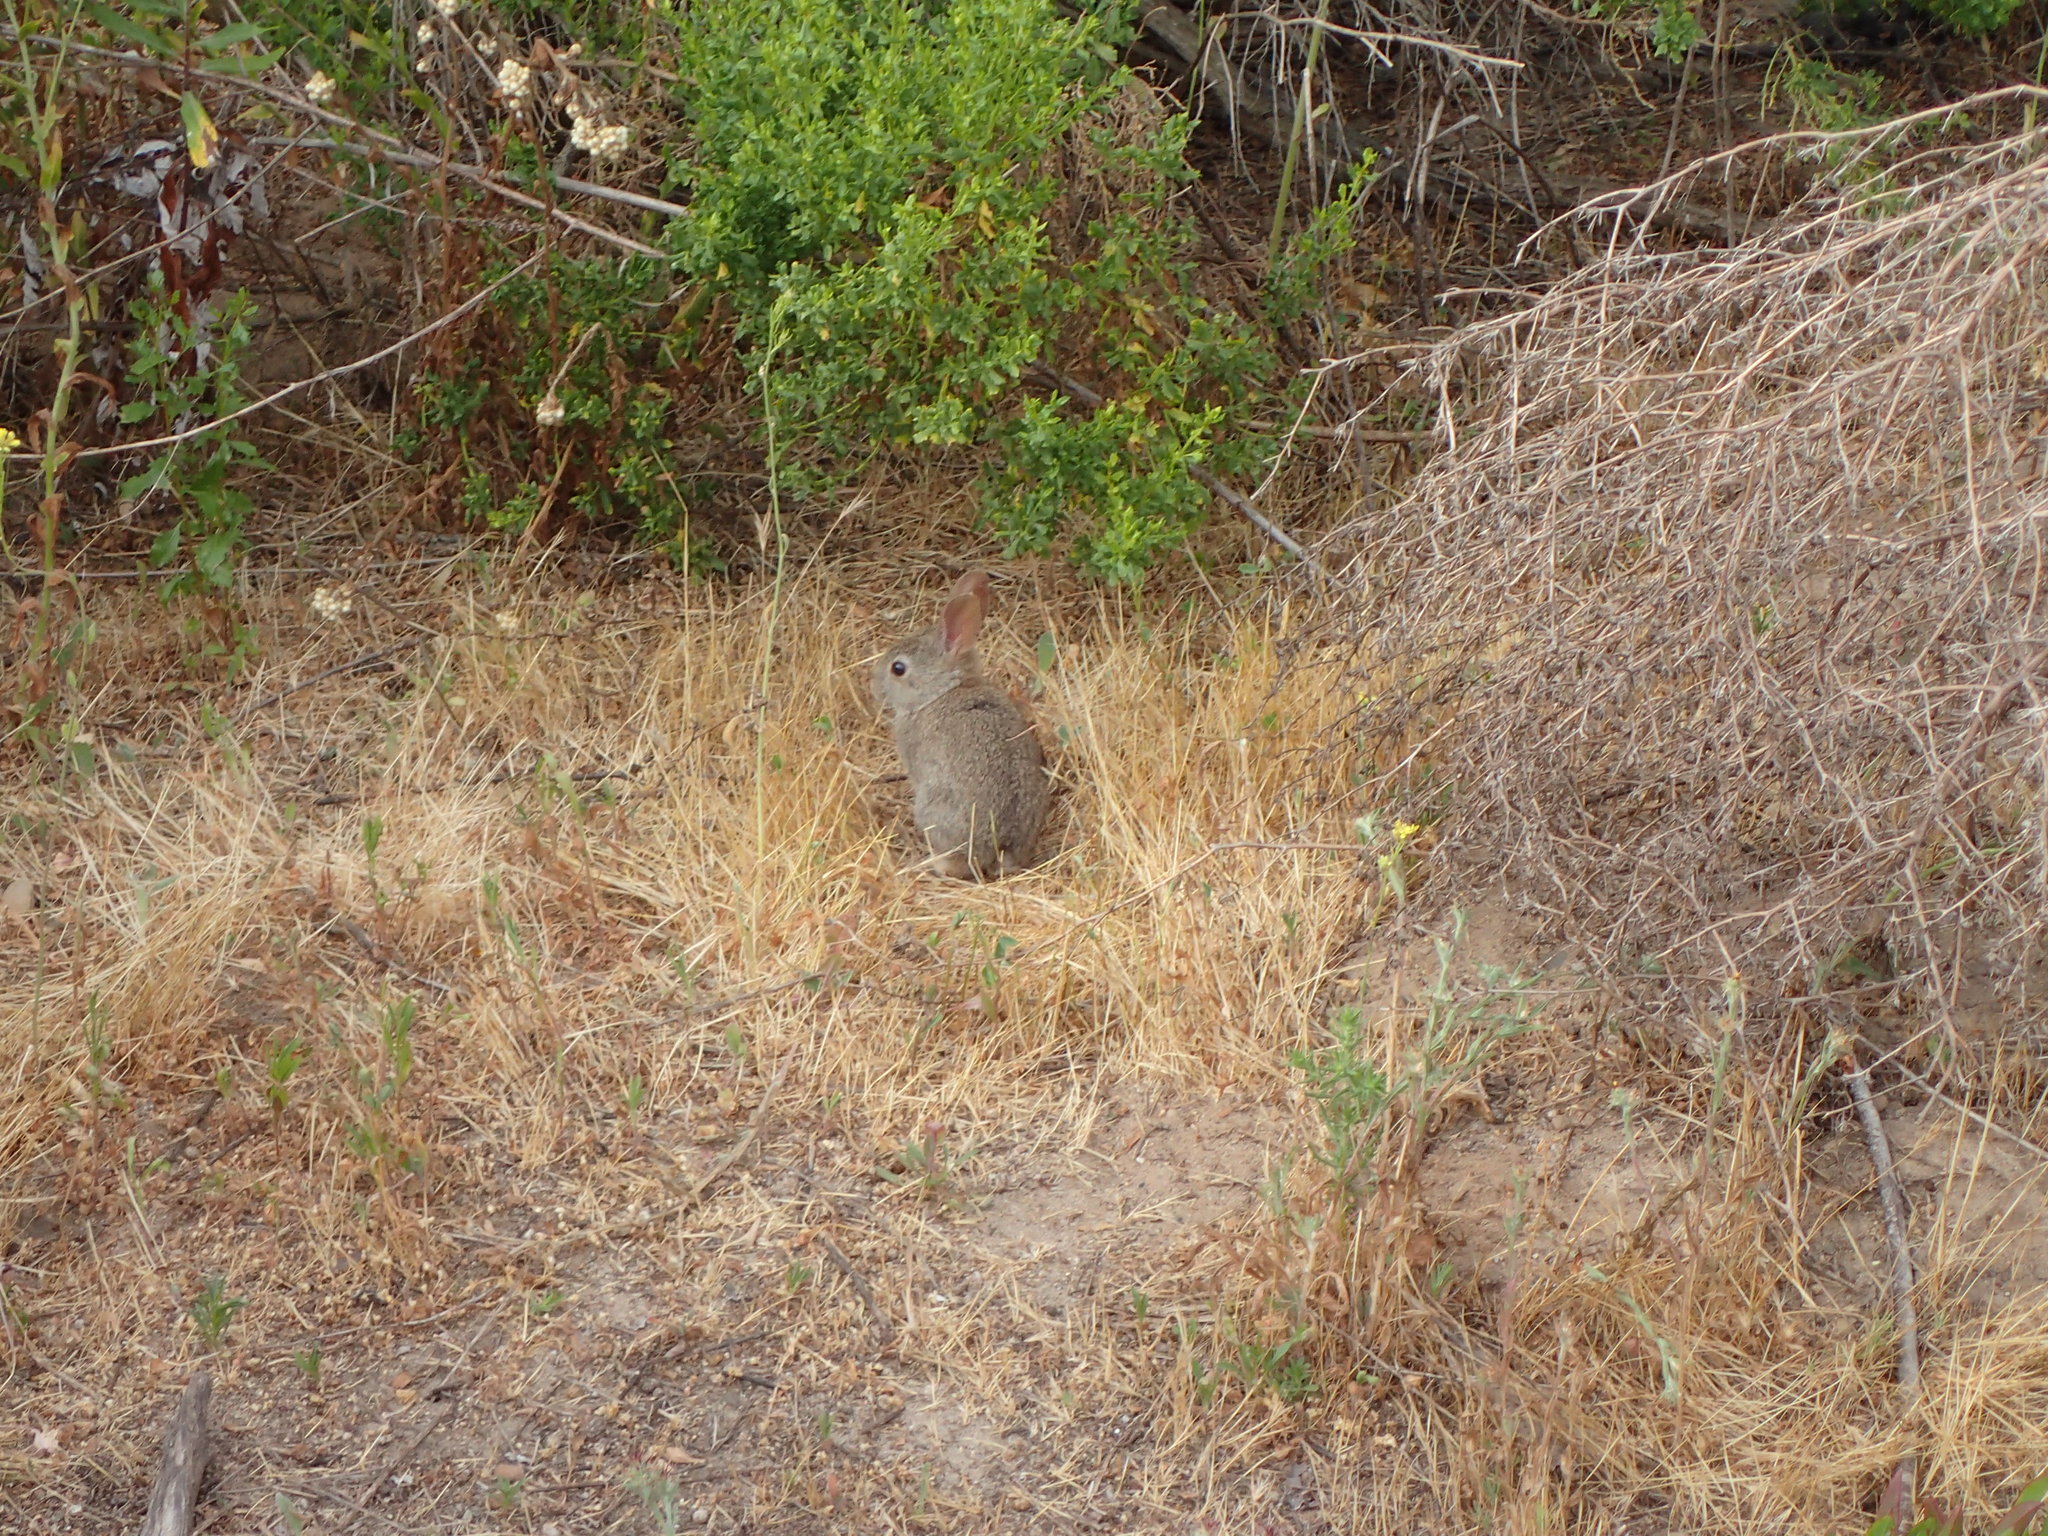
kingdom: Animalia
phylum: Chordata
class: Mammalia
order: Lagomorpha
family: Leporidae
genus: Sylvilagus
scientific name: Sylvilagus bachmani
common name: Brush rabbit
